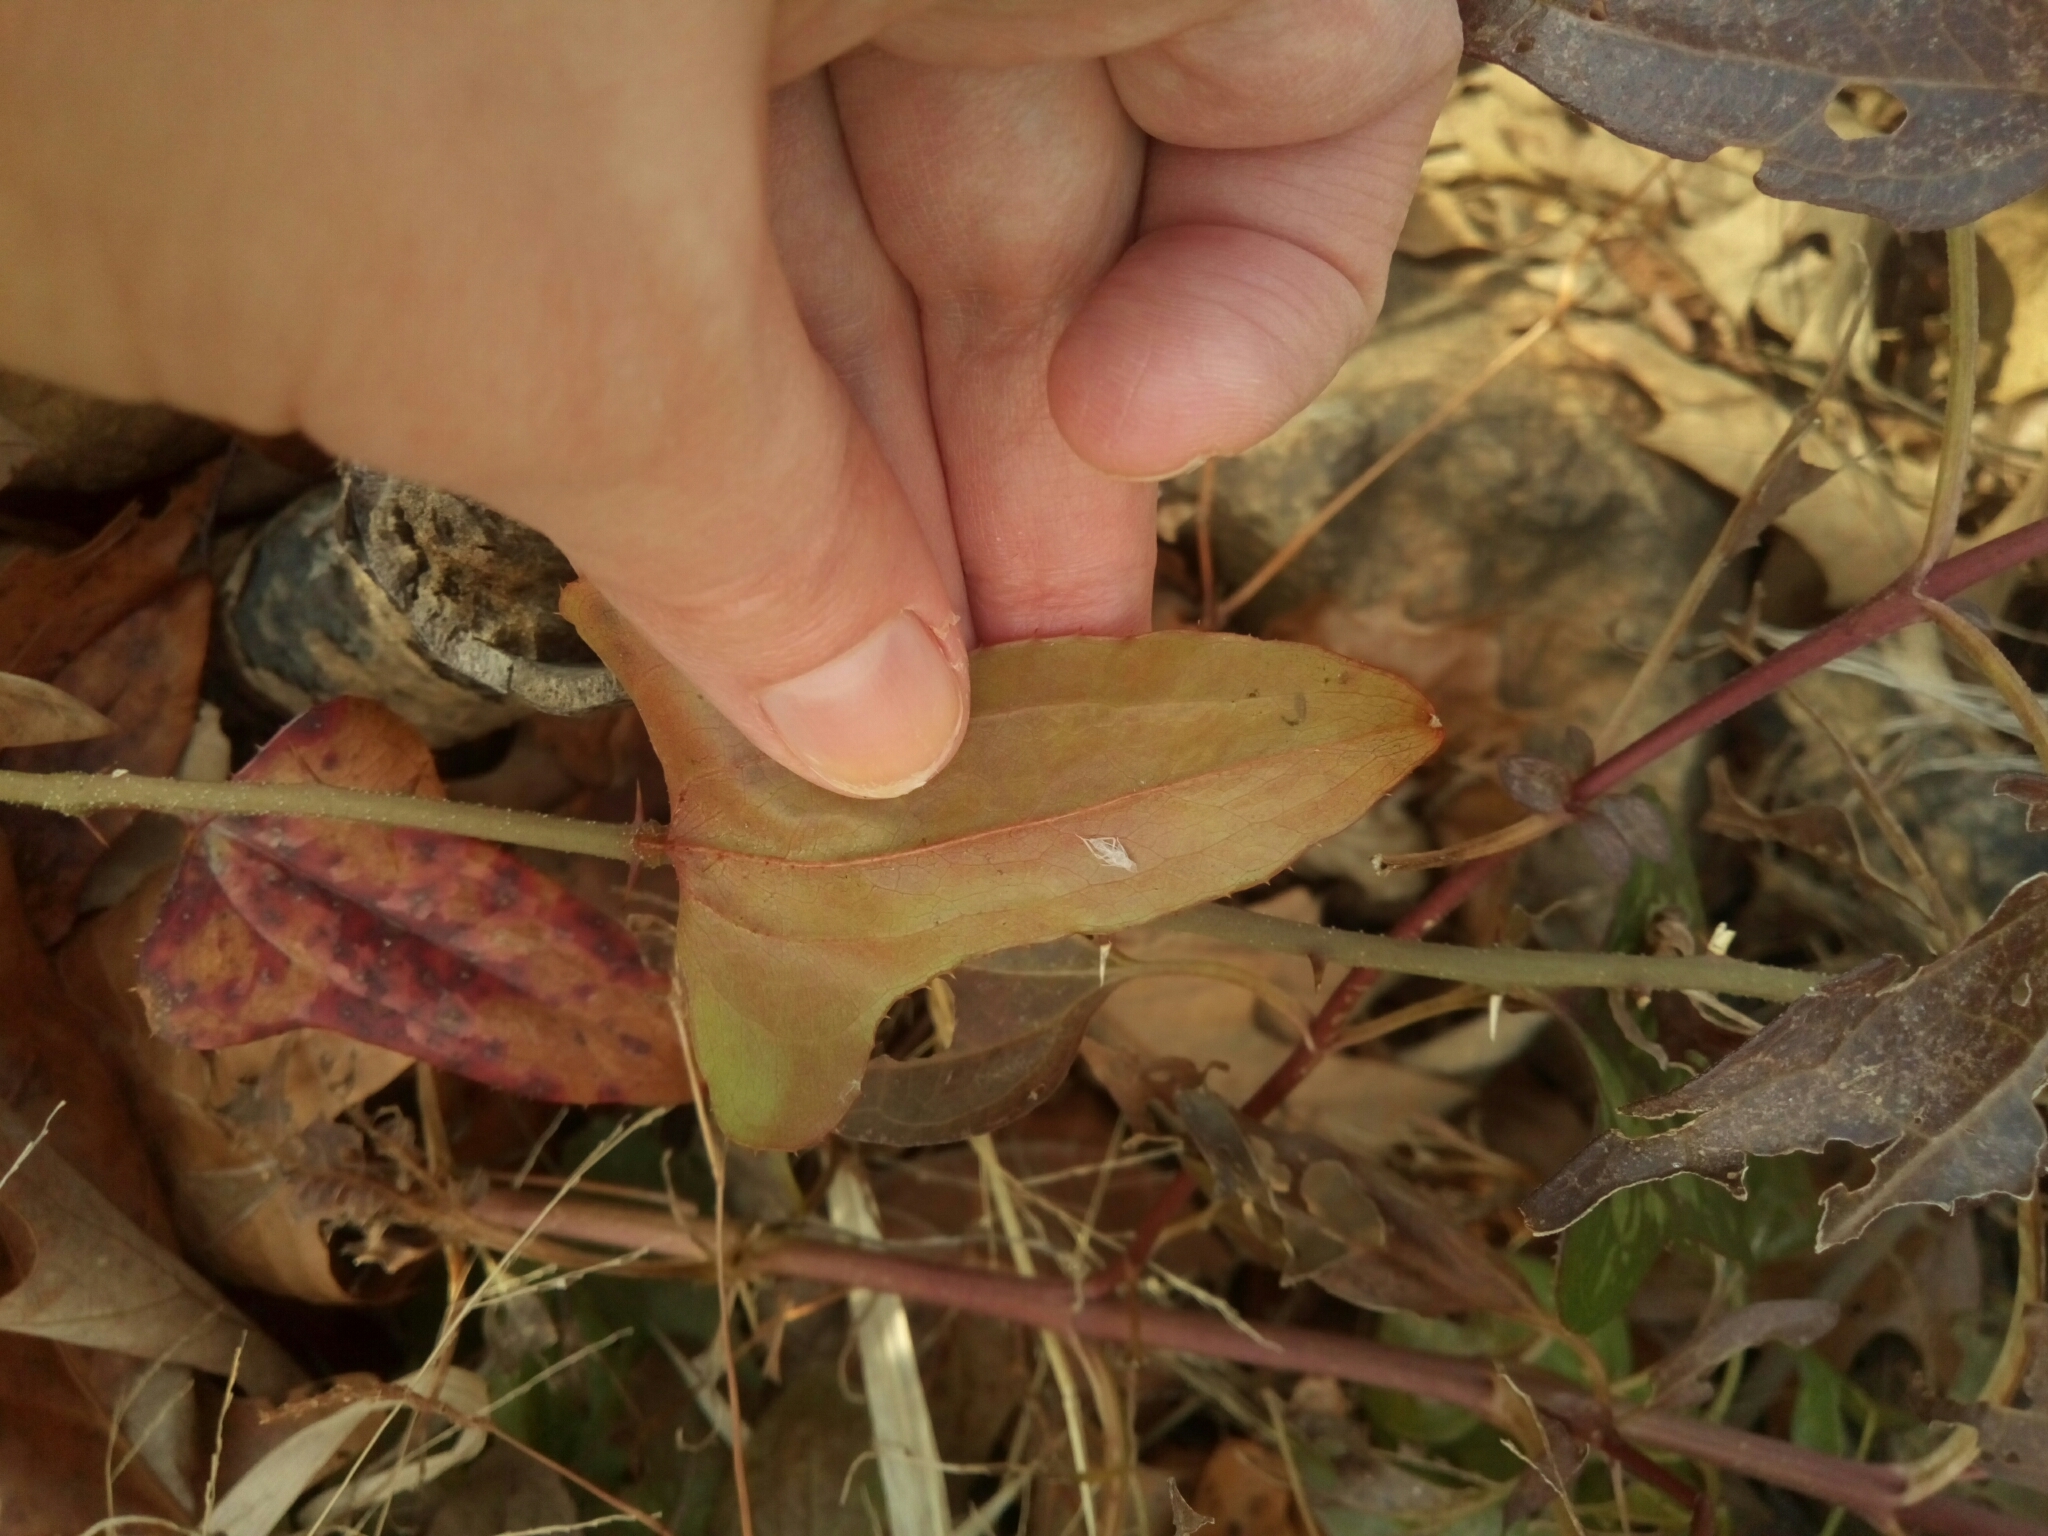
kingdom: Plantae
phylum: Tracheophyta
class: Liliopsida
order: Liliales
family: Smilacaceae
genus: Smilax
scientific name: Smilax bona-nox
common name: Catbrier
